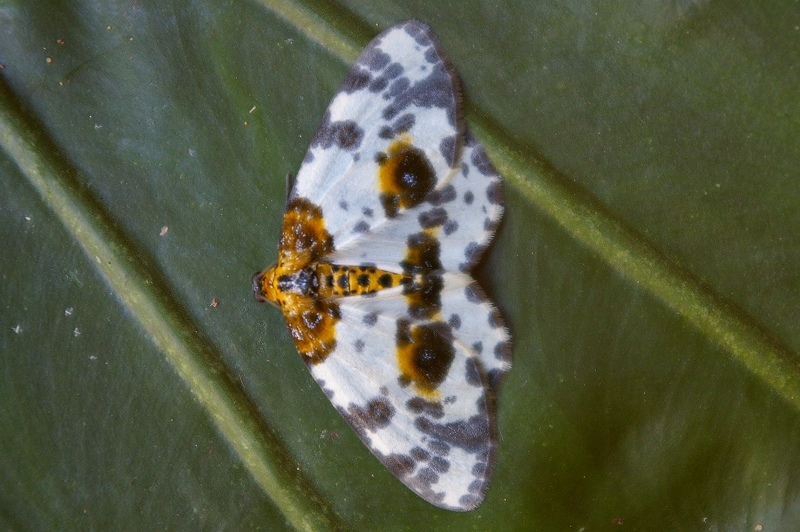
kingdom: Animalia
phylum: Arthropoda
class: Insecta
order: Lepidoptera
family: Geometridae
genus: Abraxas
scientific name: Abraxas niphonibia
